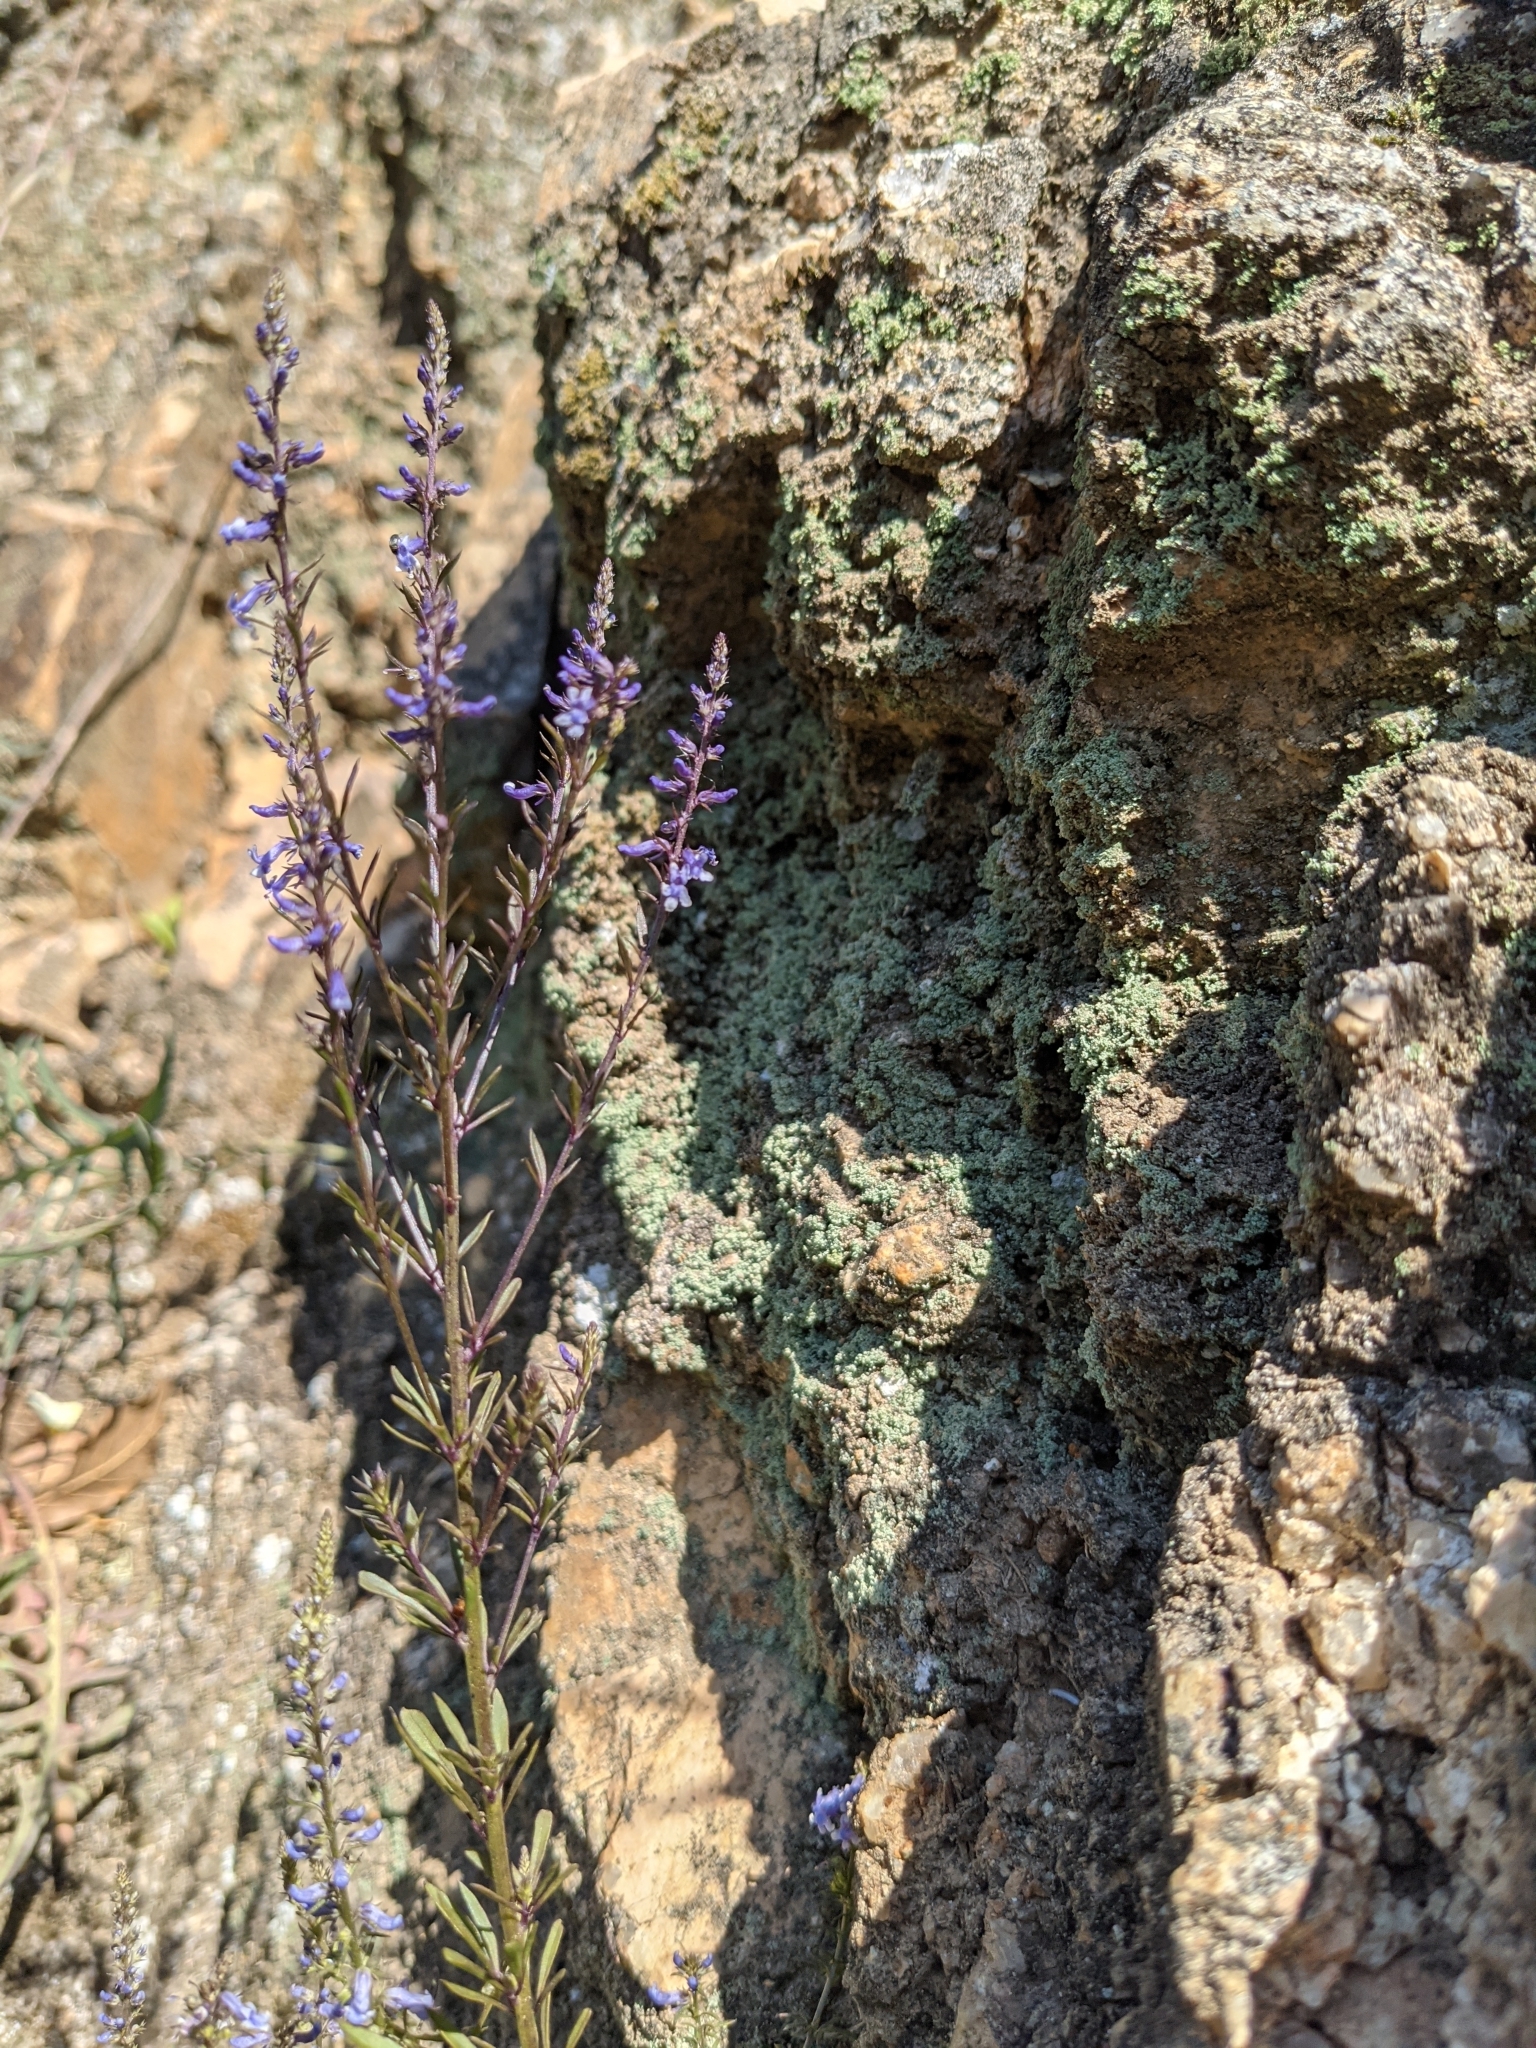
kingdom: Plantae
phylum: Tracheophyta
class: Magnoliopsida
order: Lamiales
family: Plantaginaceae
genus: Anarrhinum
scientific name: Anarrhinum bellidifolium
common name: Daisy-leaved toadflax
